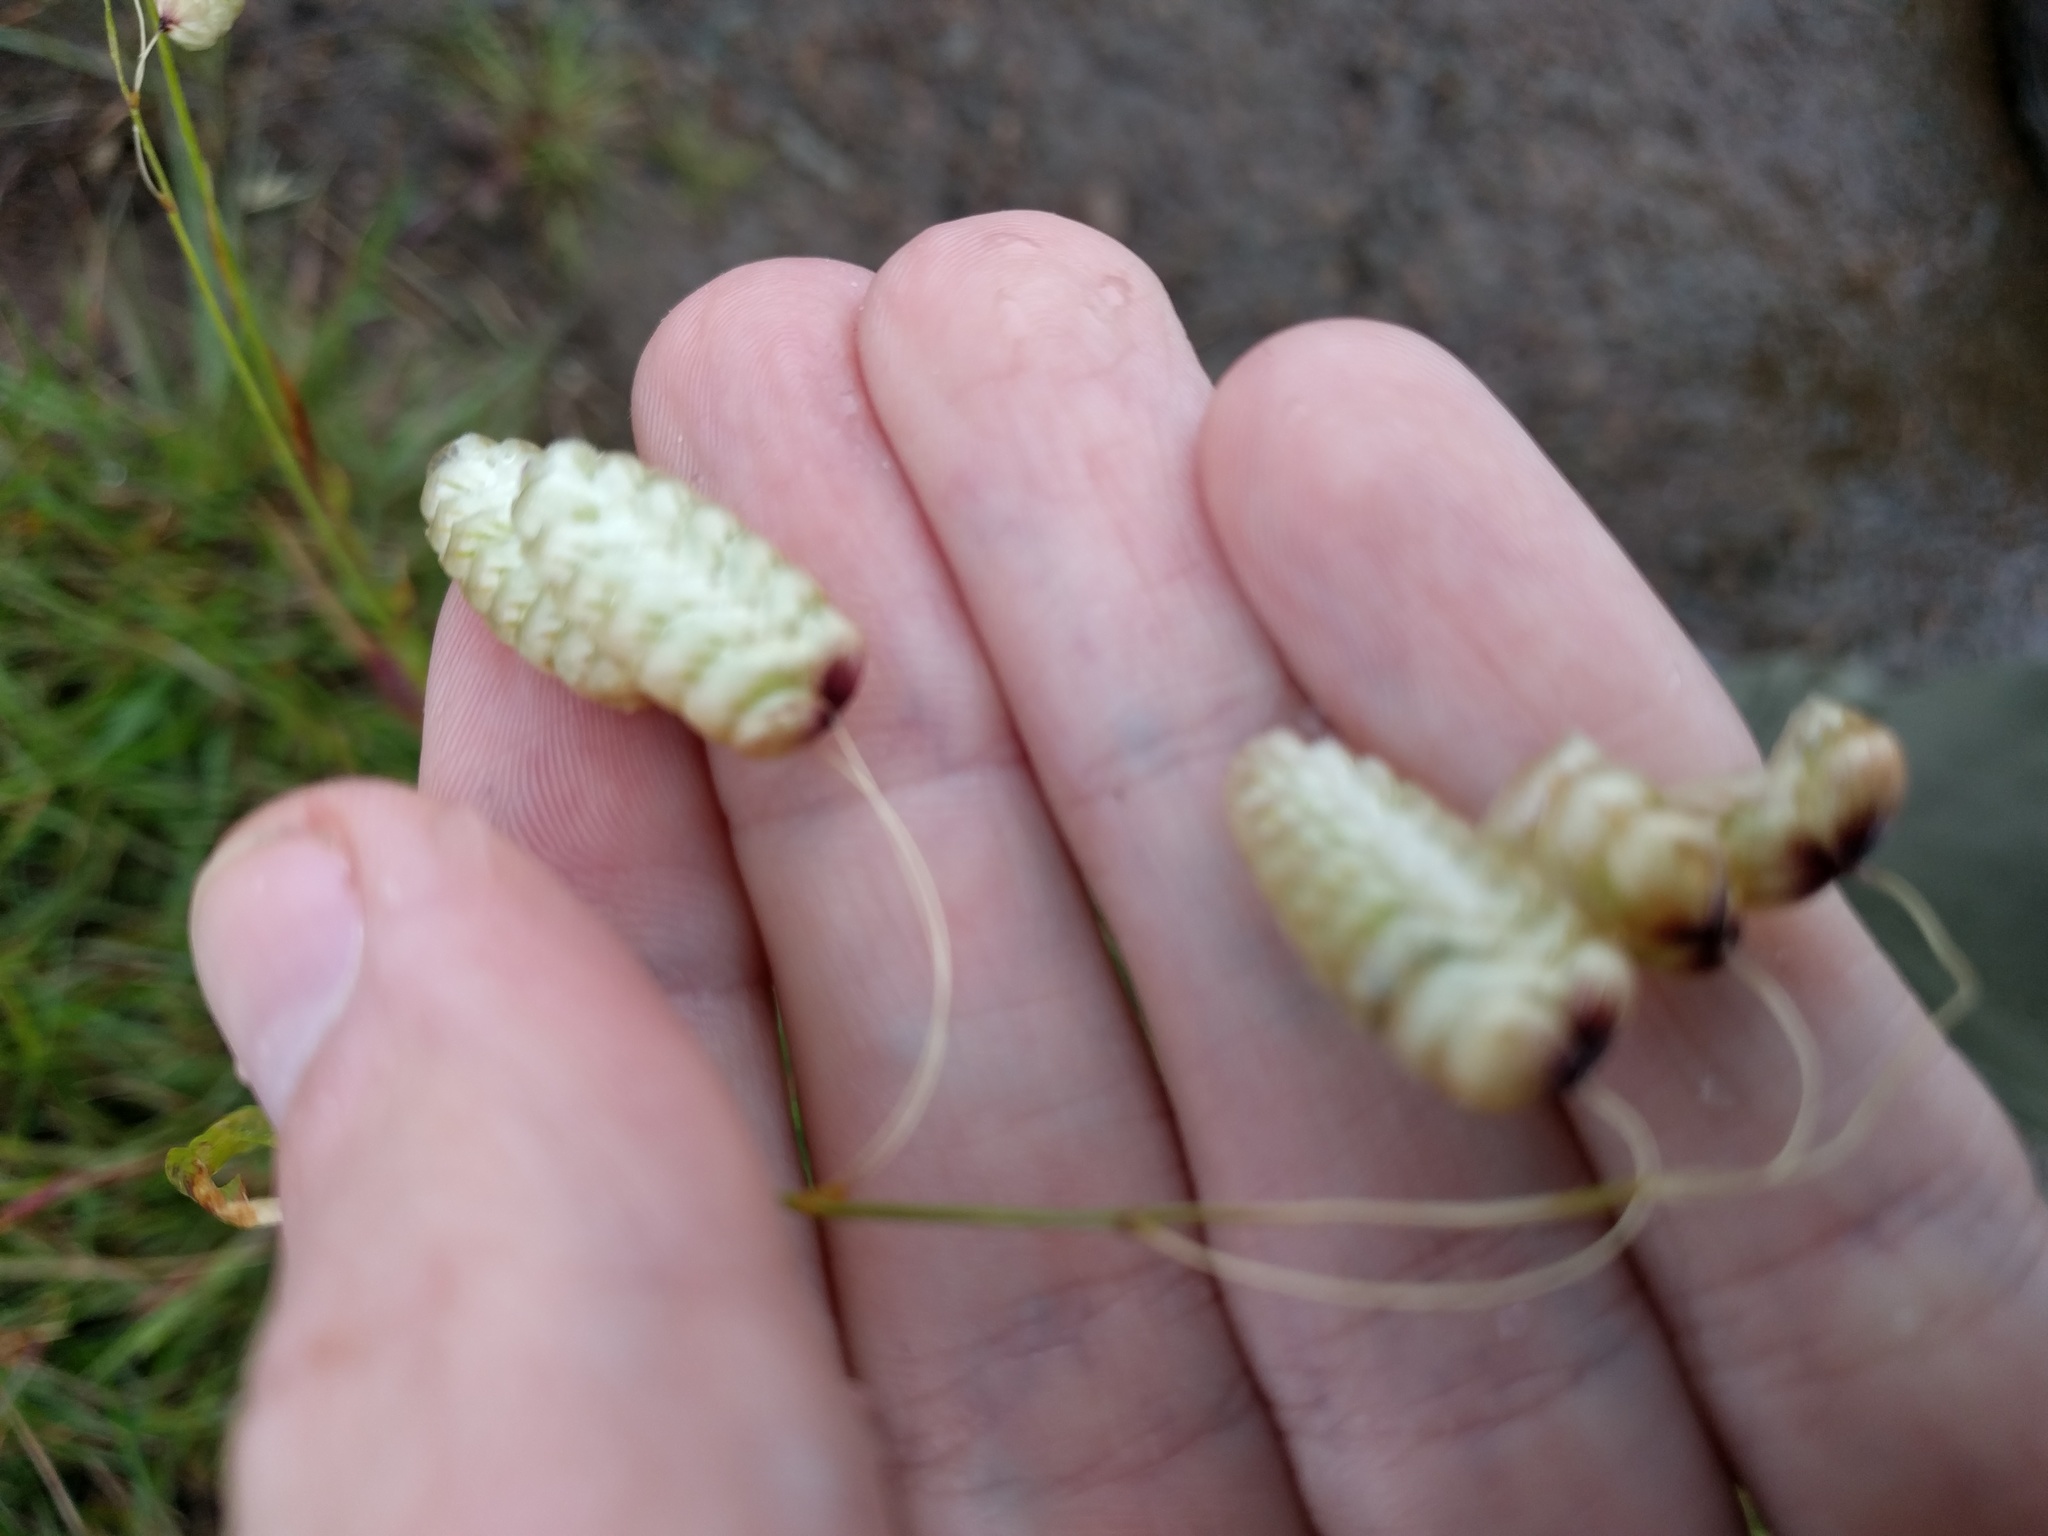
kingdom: Plantae
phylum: Tracheophyta
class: Liliopsida
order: Poales
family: Poaceae
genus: Briza
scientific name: Briza maxima
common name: Big quakinggrass
